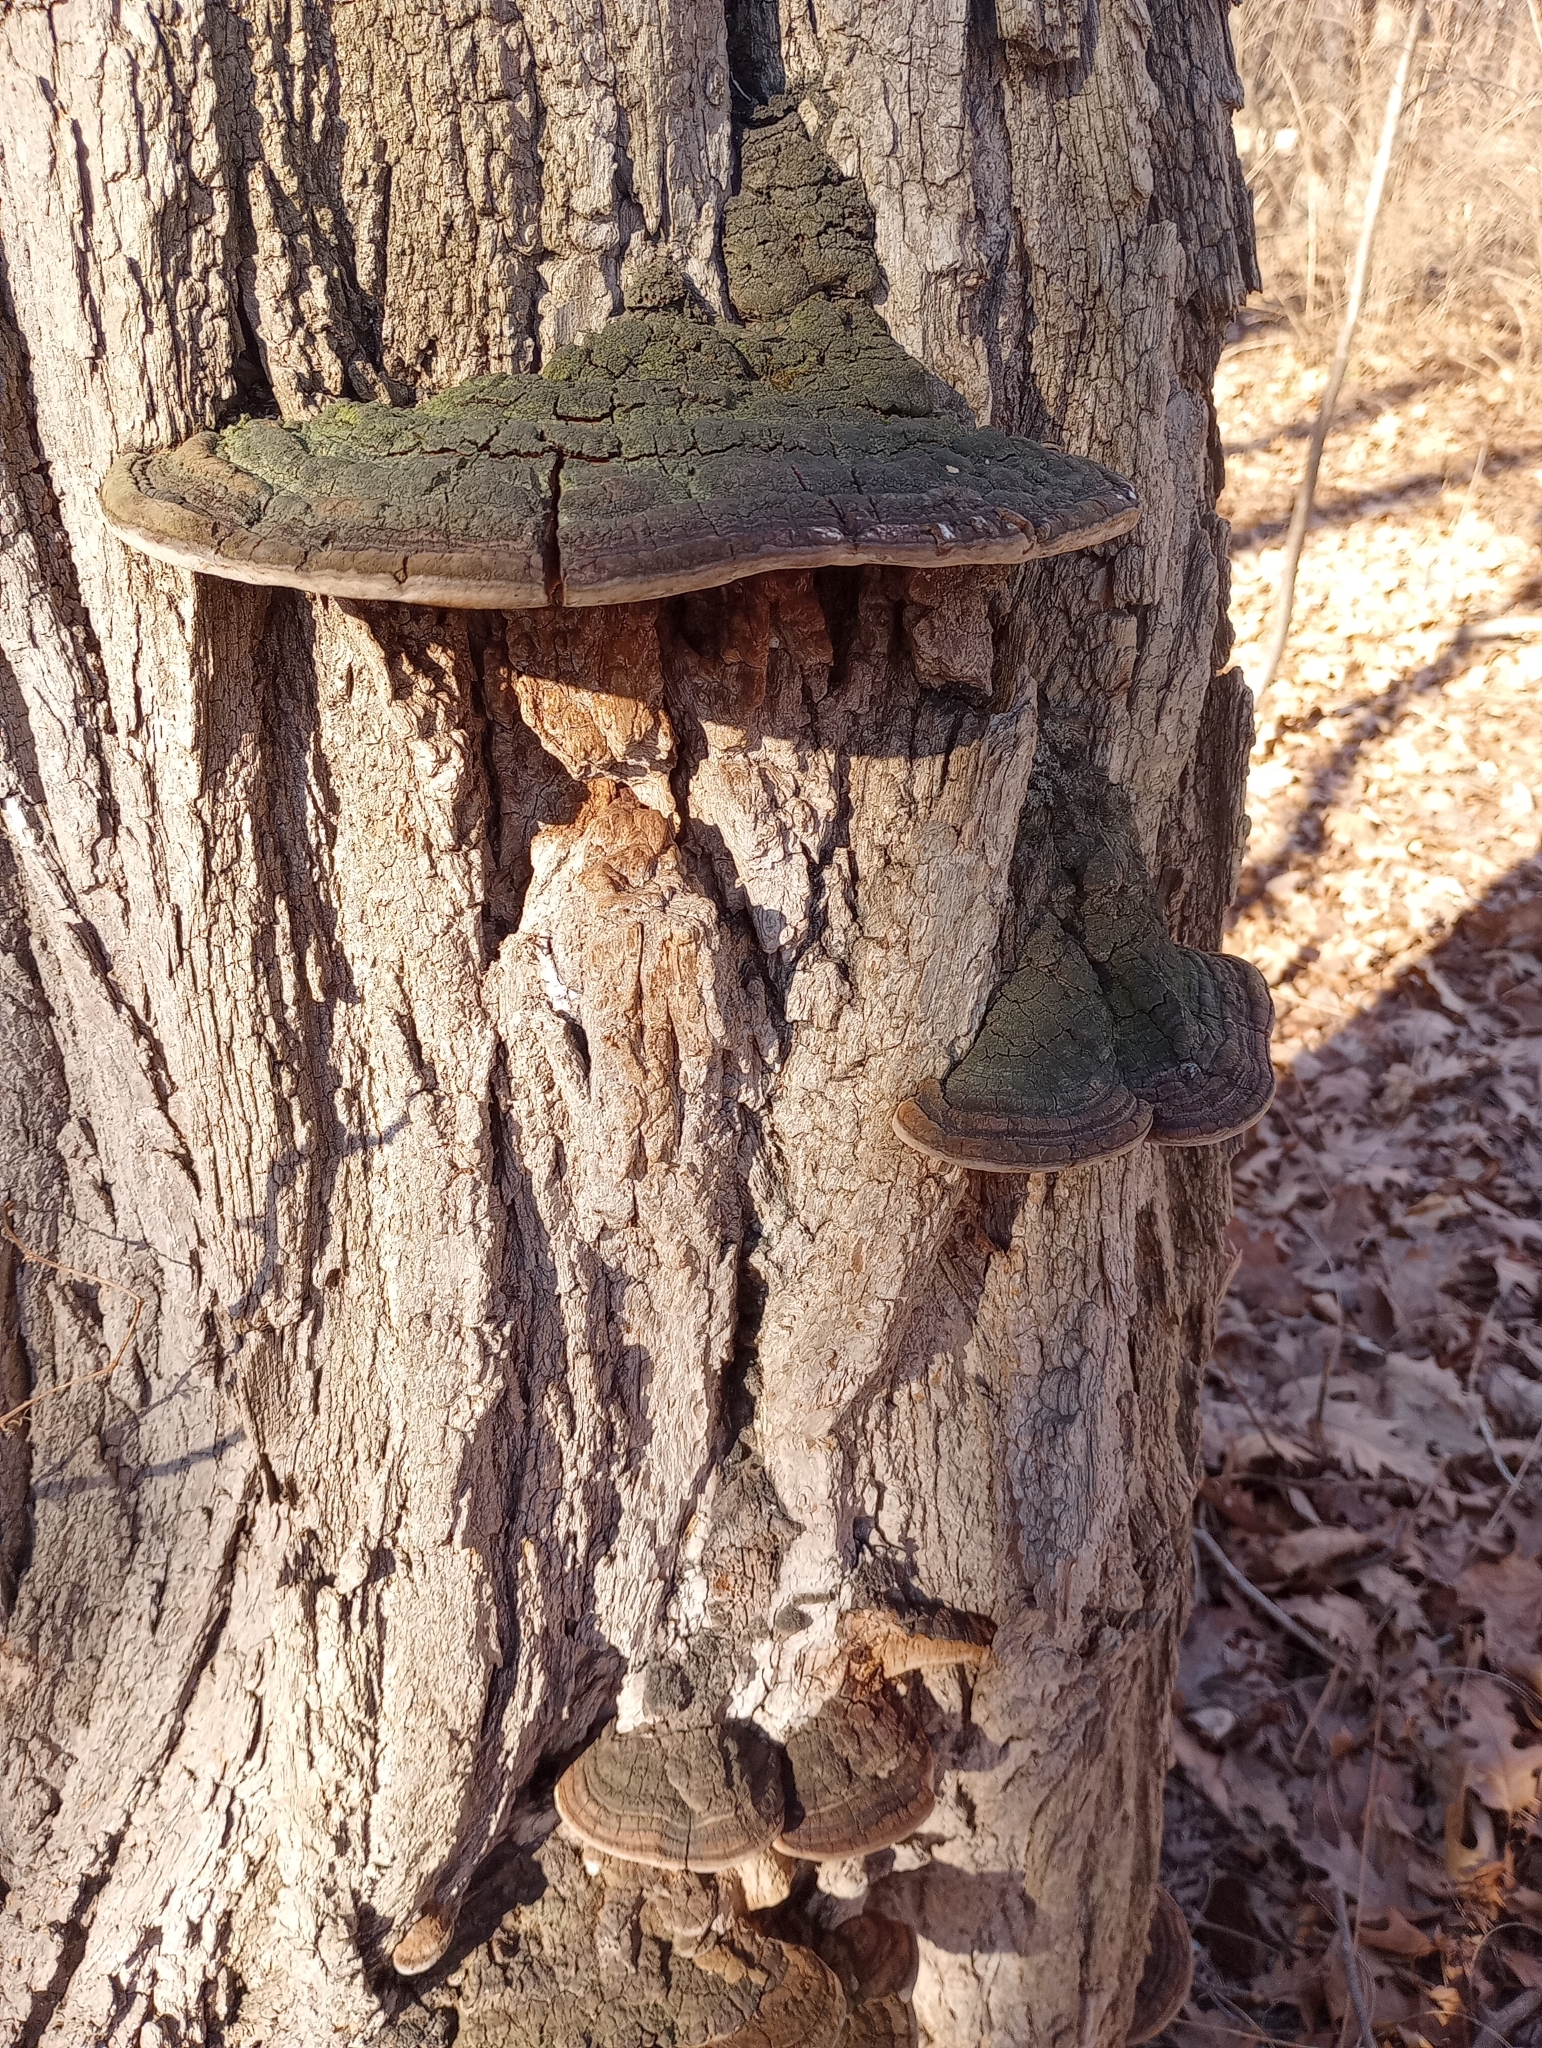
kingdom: Fungi
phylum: Basidiomycota
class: Agaricomycetes
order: Hymenochaetales
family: Hymenochaetaceae
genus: Phellinus
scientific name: Phellinus robiniae
